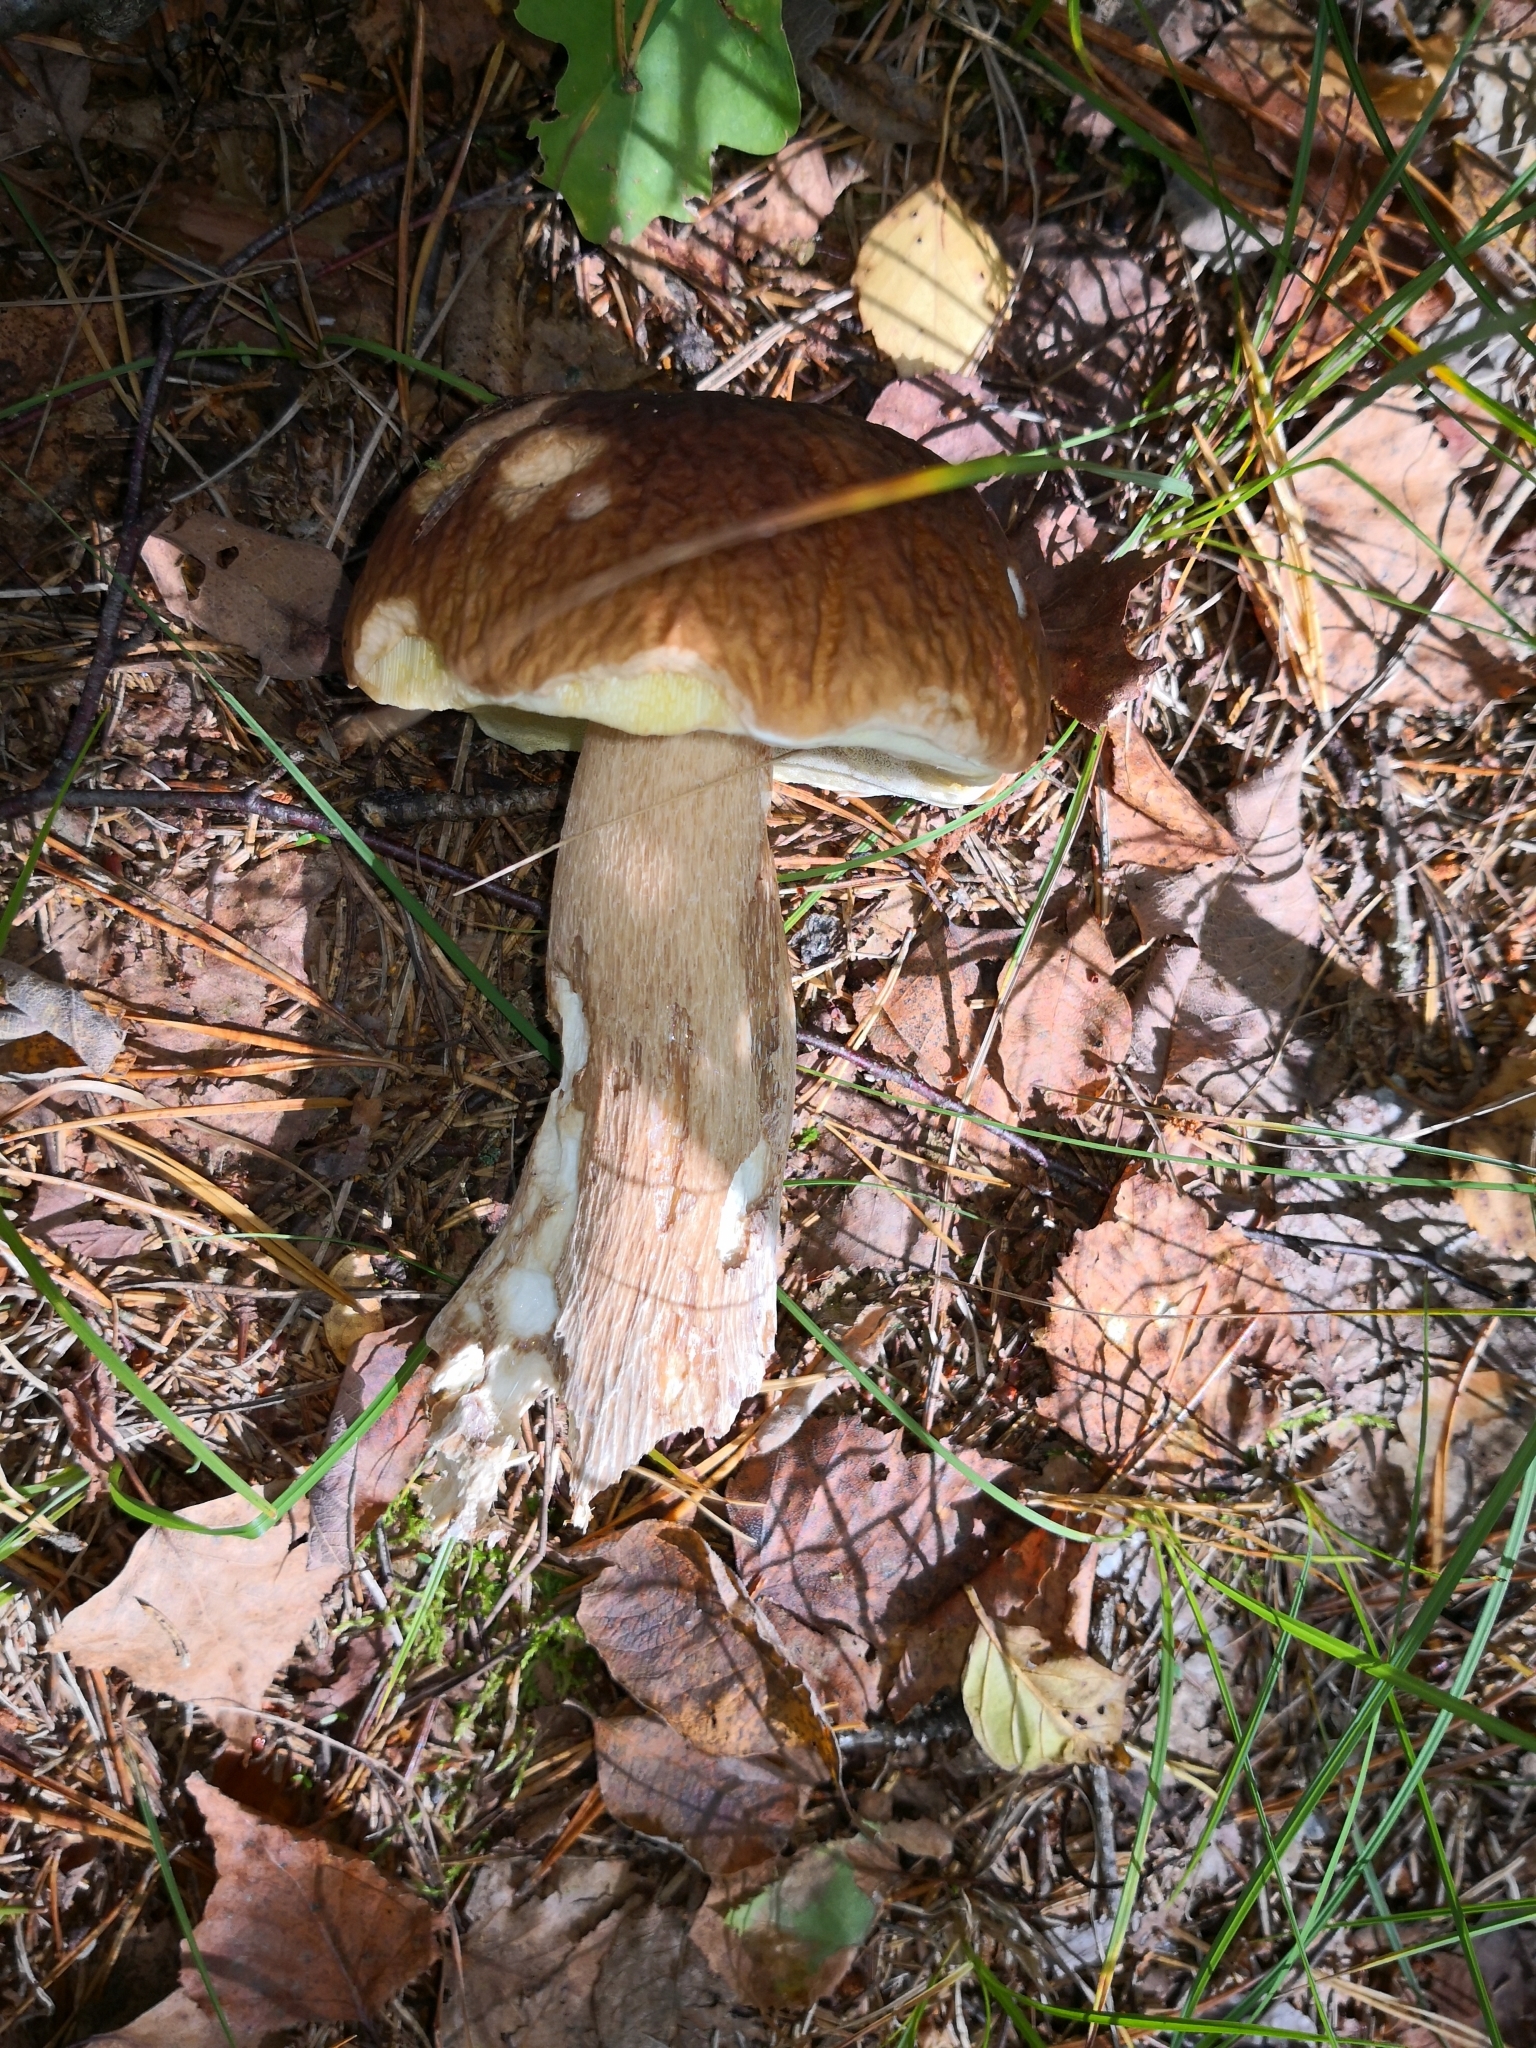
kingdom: Fungi
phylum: Basidiomycota
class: Agaricomycetes
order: Boletales
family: Boletaceae
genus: Boletus
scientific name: Boletus edulis
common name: Cep
